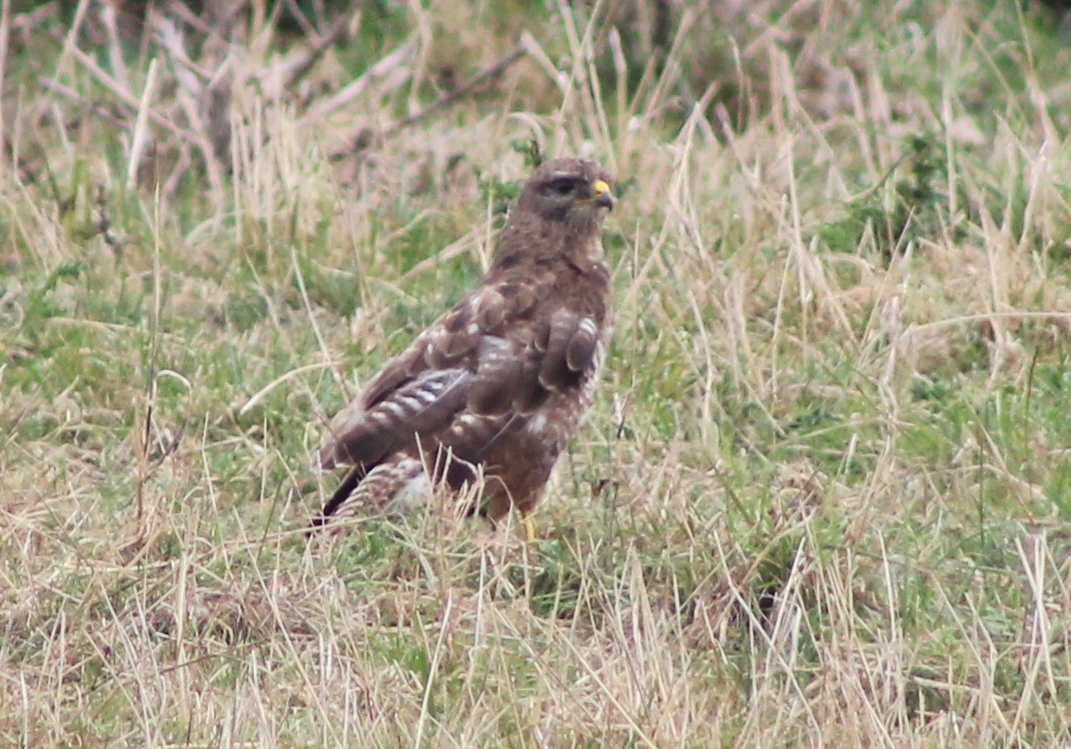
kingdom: Animalia
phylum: Chordata
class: Aves
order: Accipitriformes
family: Accipitridae
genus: Buteo
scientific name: Buteo buteo
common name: Common buzzard
